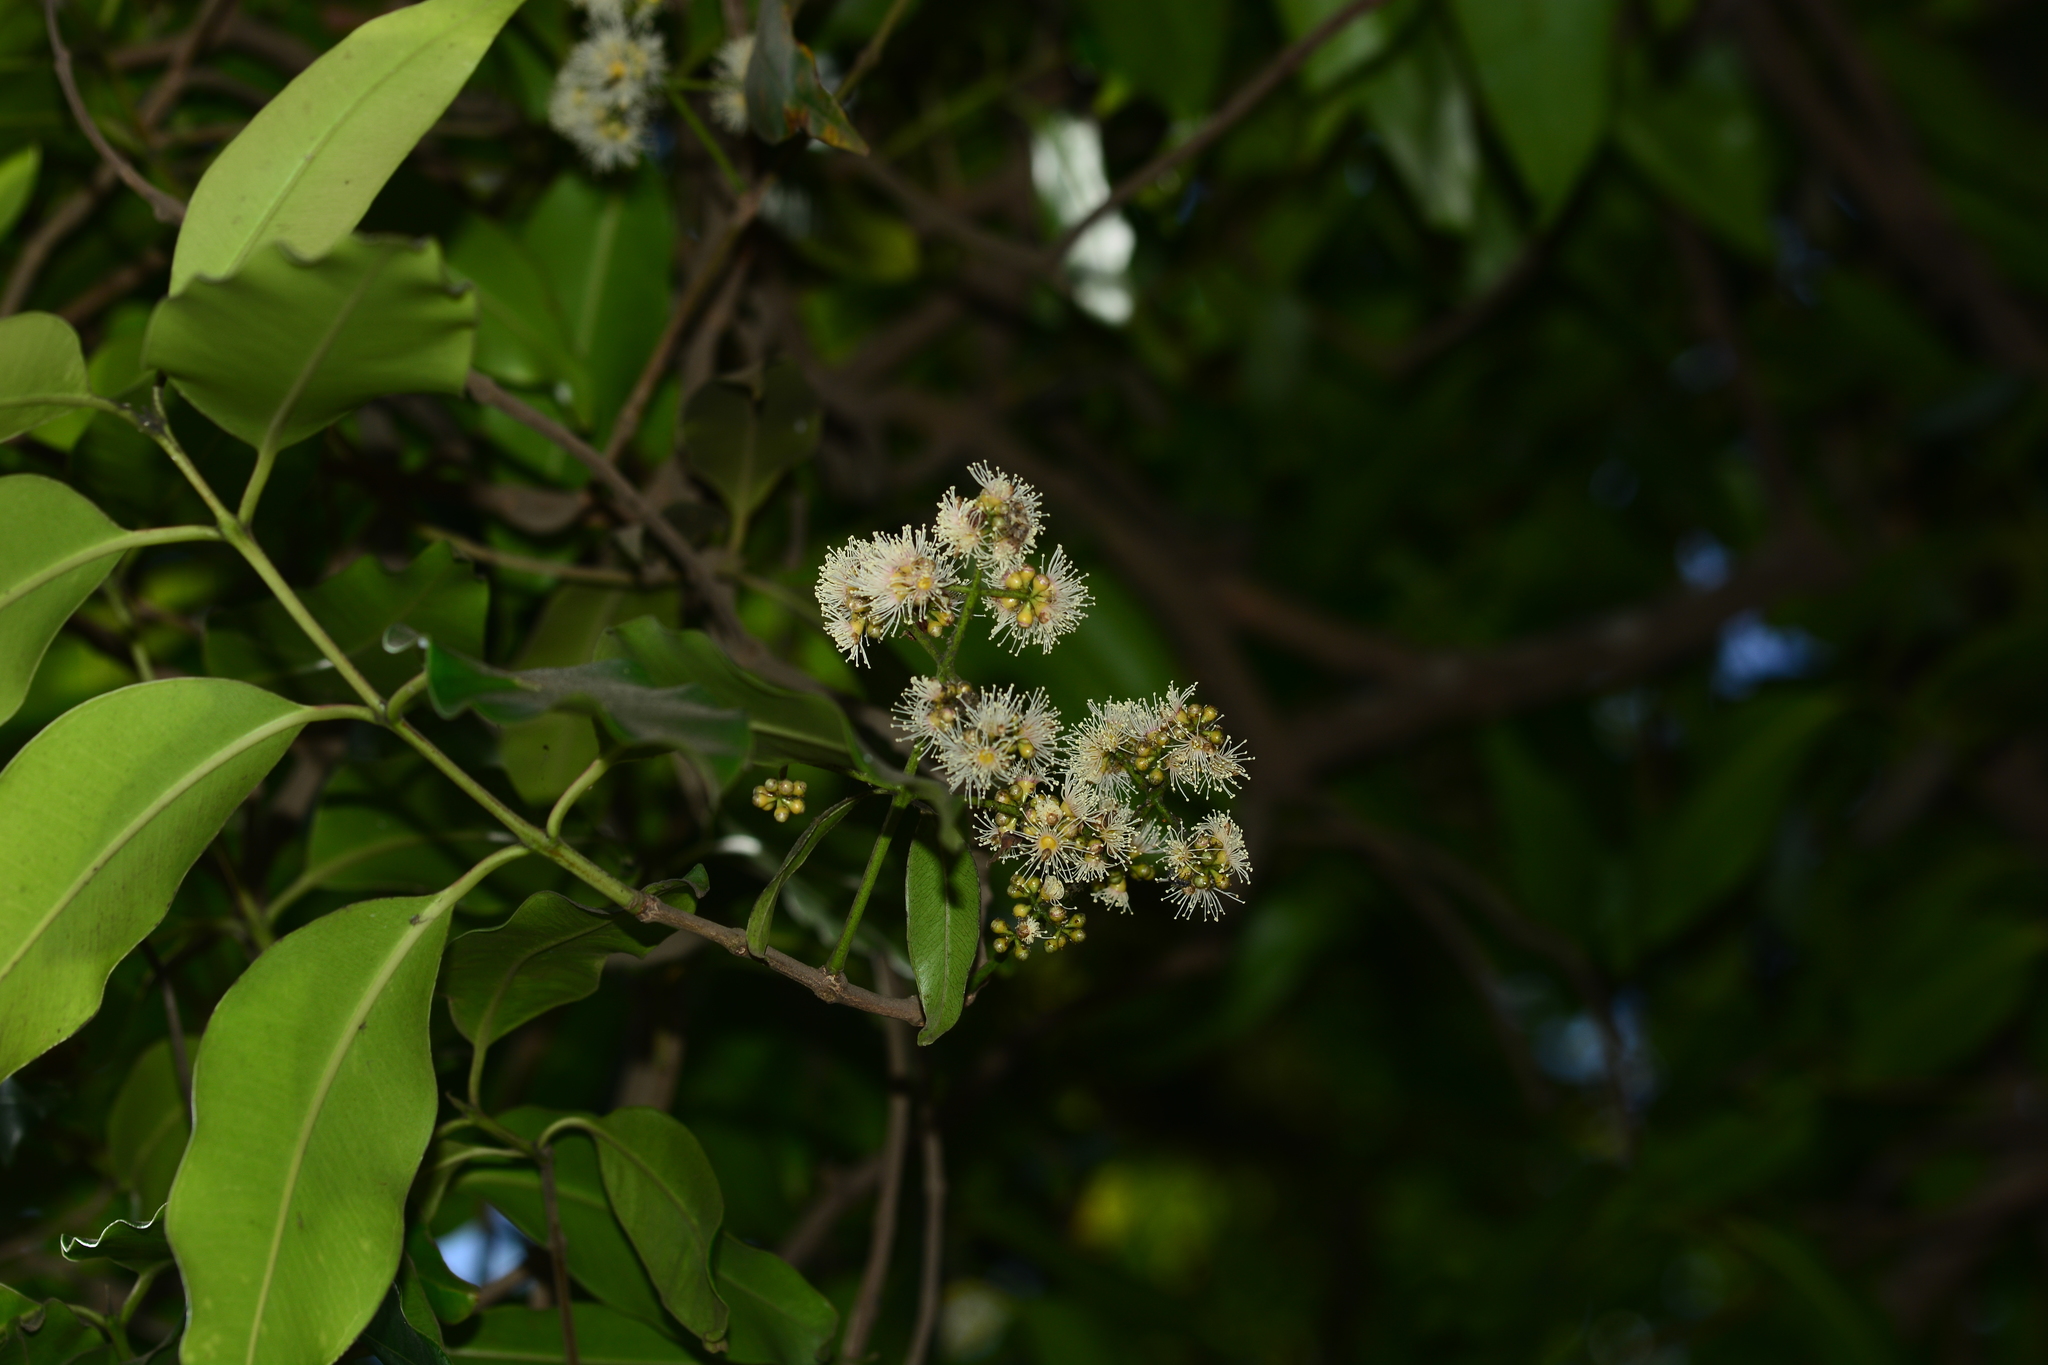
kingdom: Plantae
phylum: Tracheophyta
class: Magnoliopsida
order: Myrtales
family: Myrtaceae
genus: Syzygium
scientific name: Syzygium cumini
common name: Java plum
